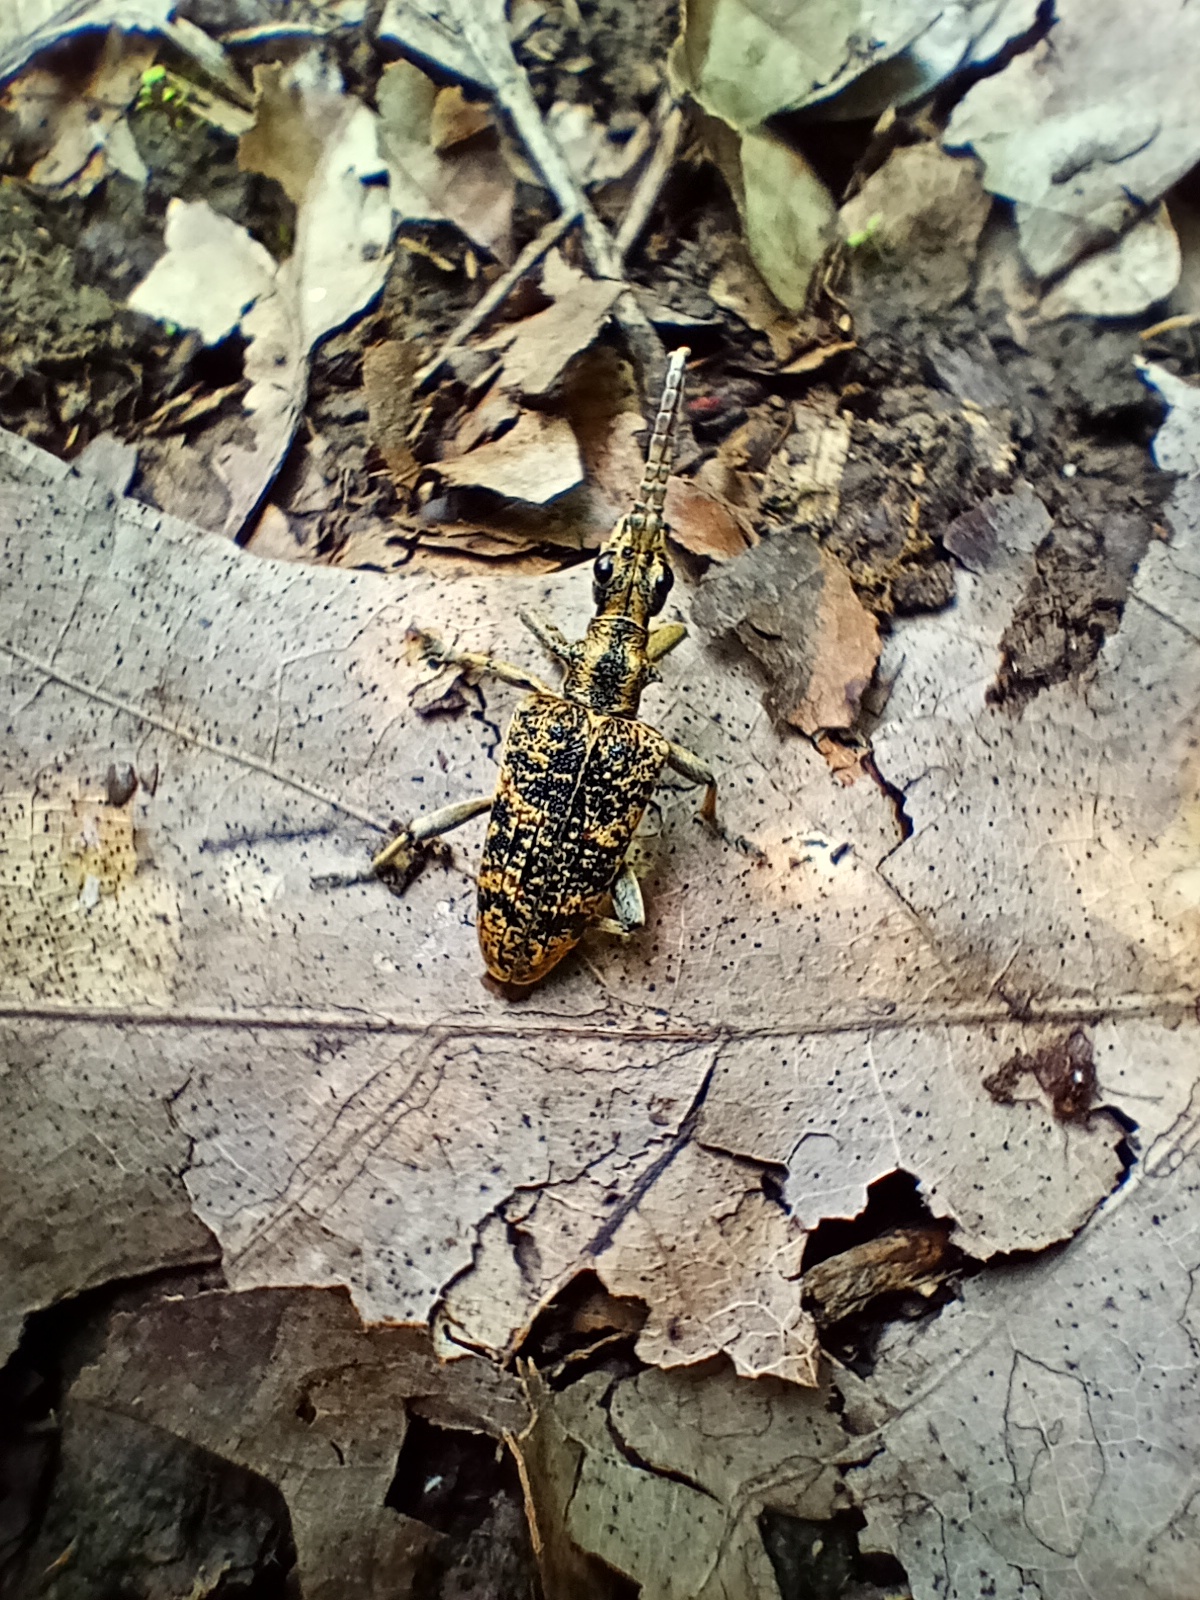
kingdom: Animalia
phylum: Arthropoda
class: Insecta
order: Coleoptera
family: Cerambycidae
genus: Rhagium
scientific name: Rhagium sycophanta
